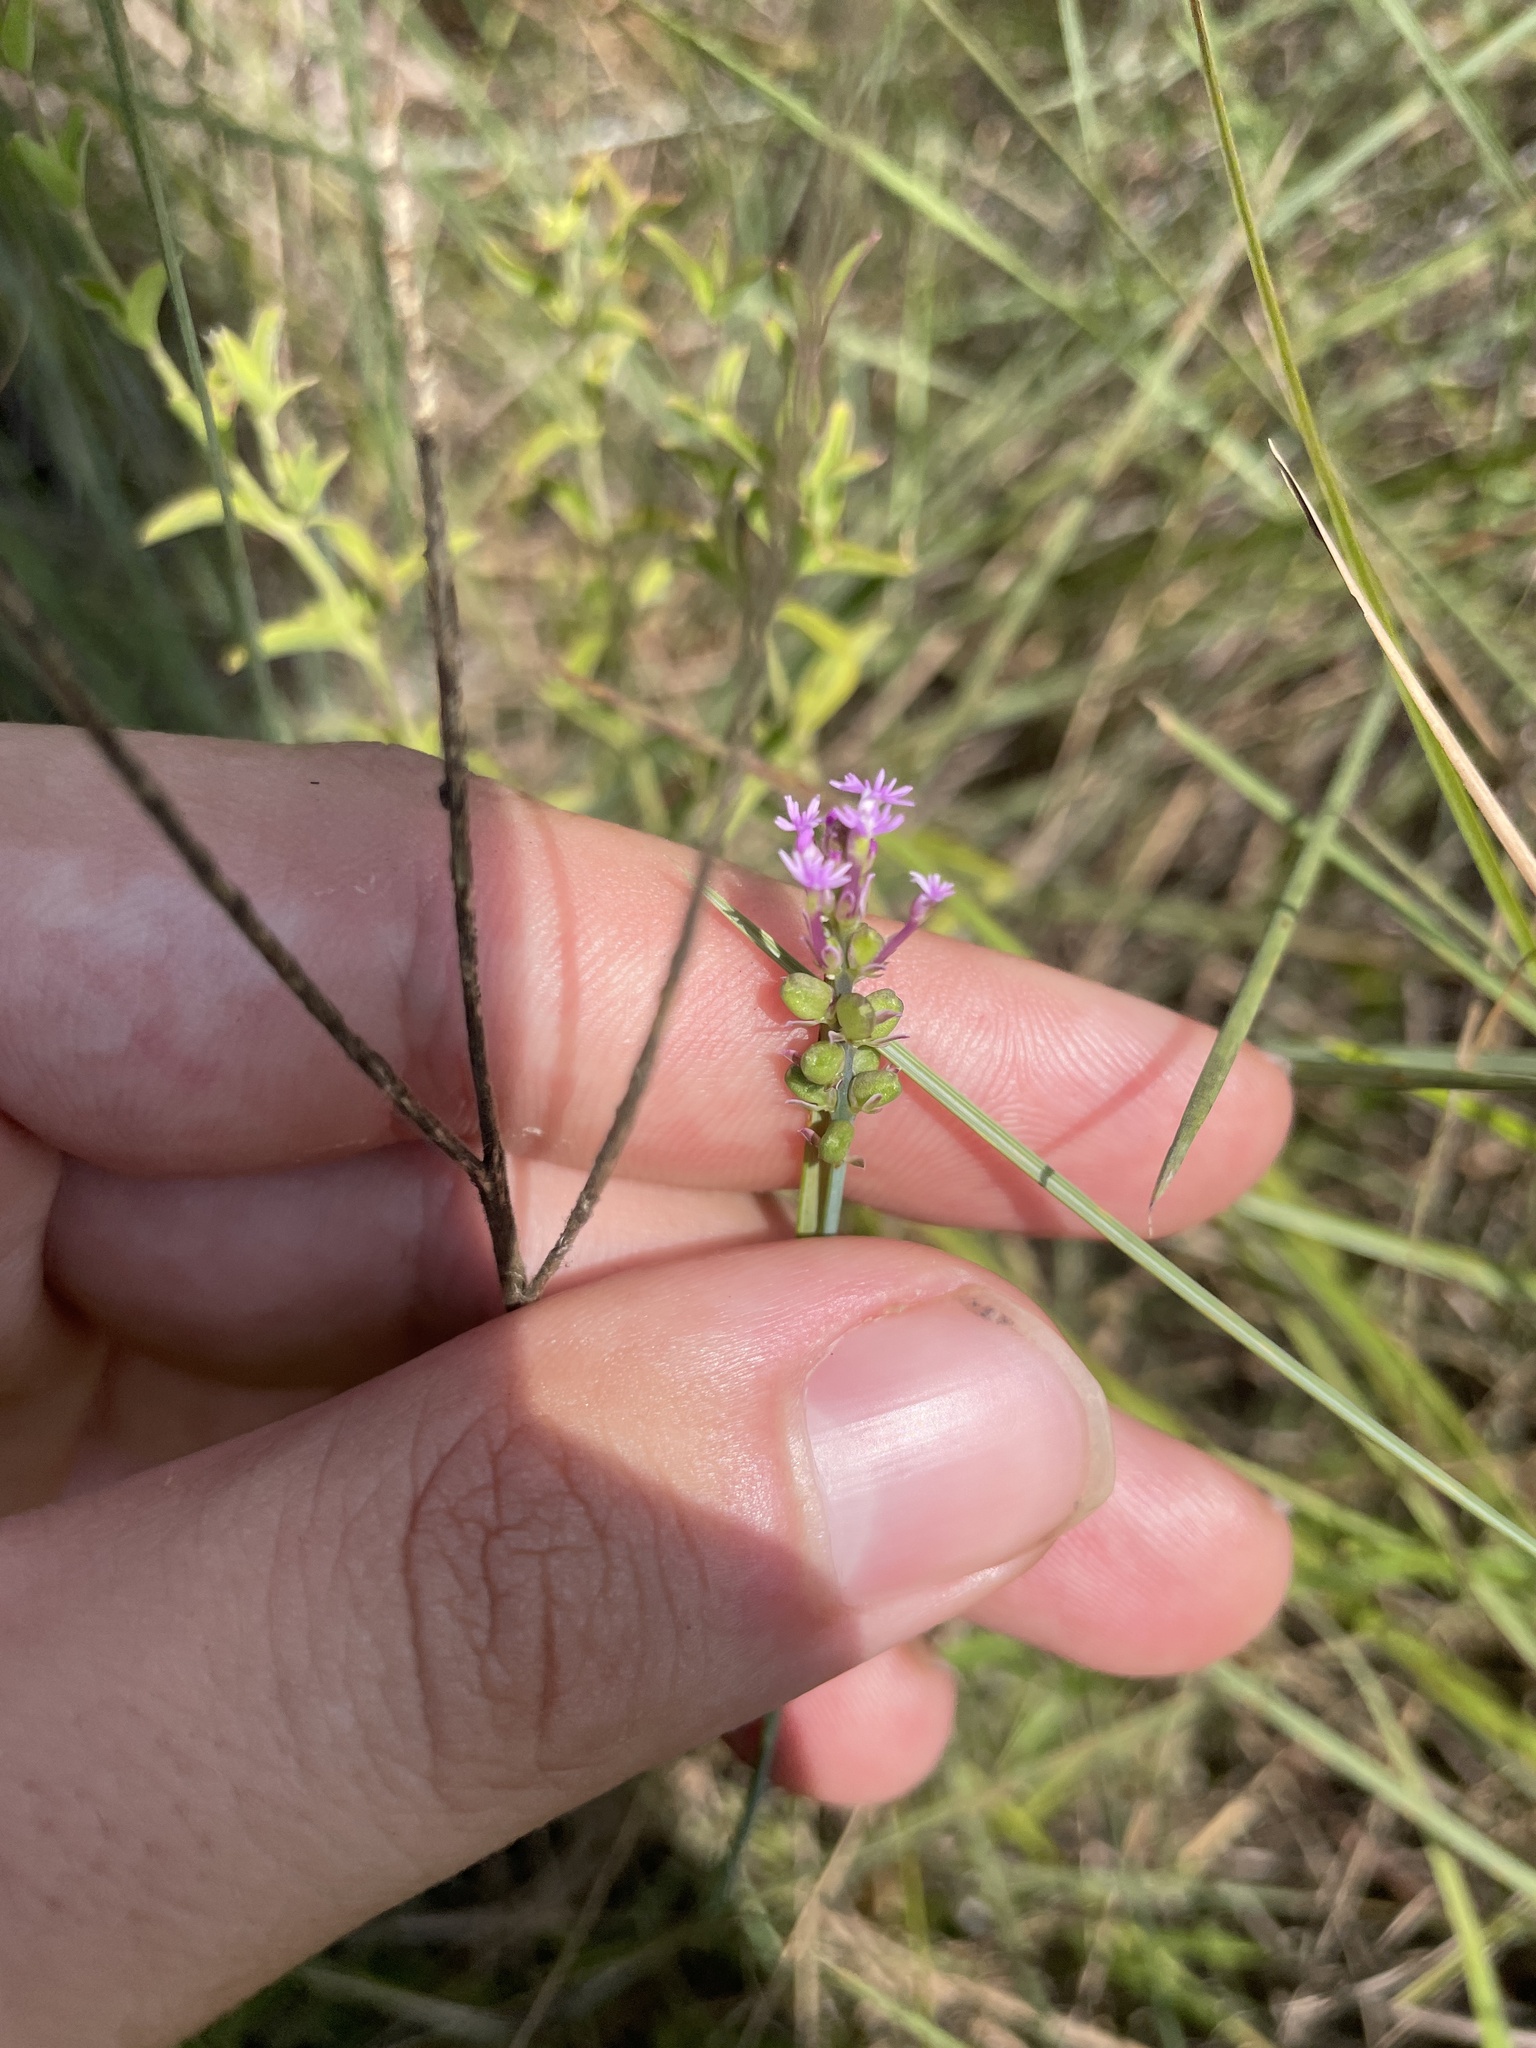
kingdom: Plantae
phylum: Tracheophyta
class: Magnoliopsida
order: Fabales
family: Polygalaceae
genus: Polygala
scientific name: Polygala incarnata
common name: Pink milkwort
